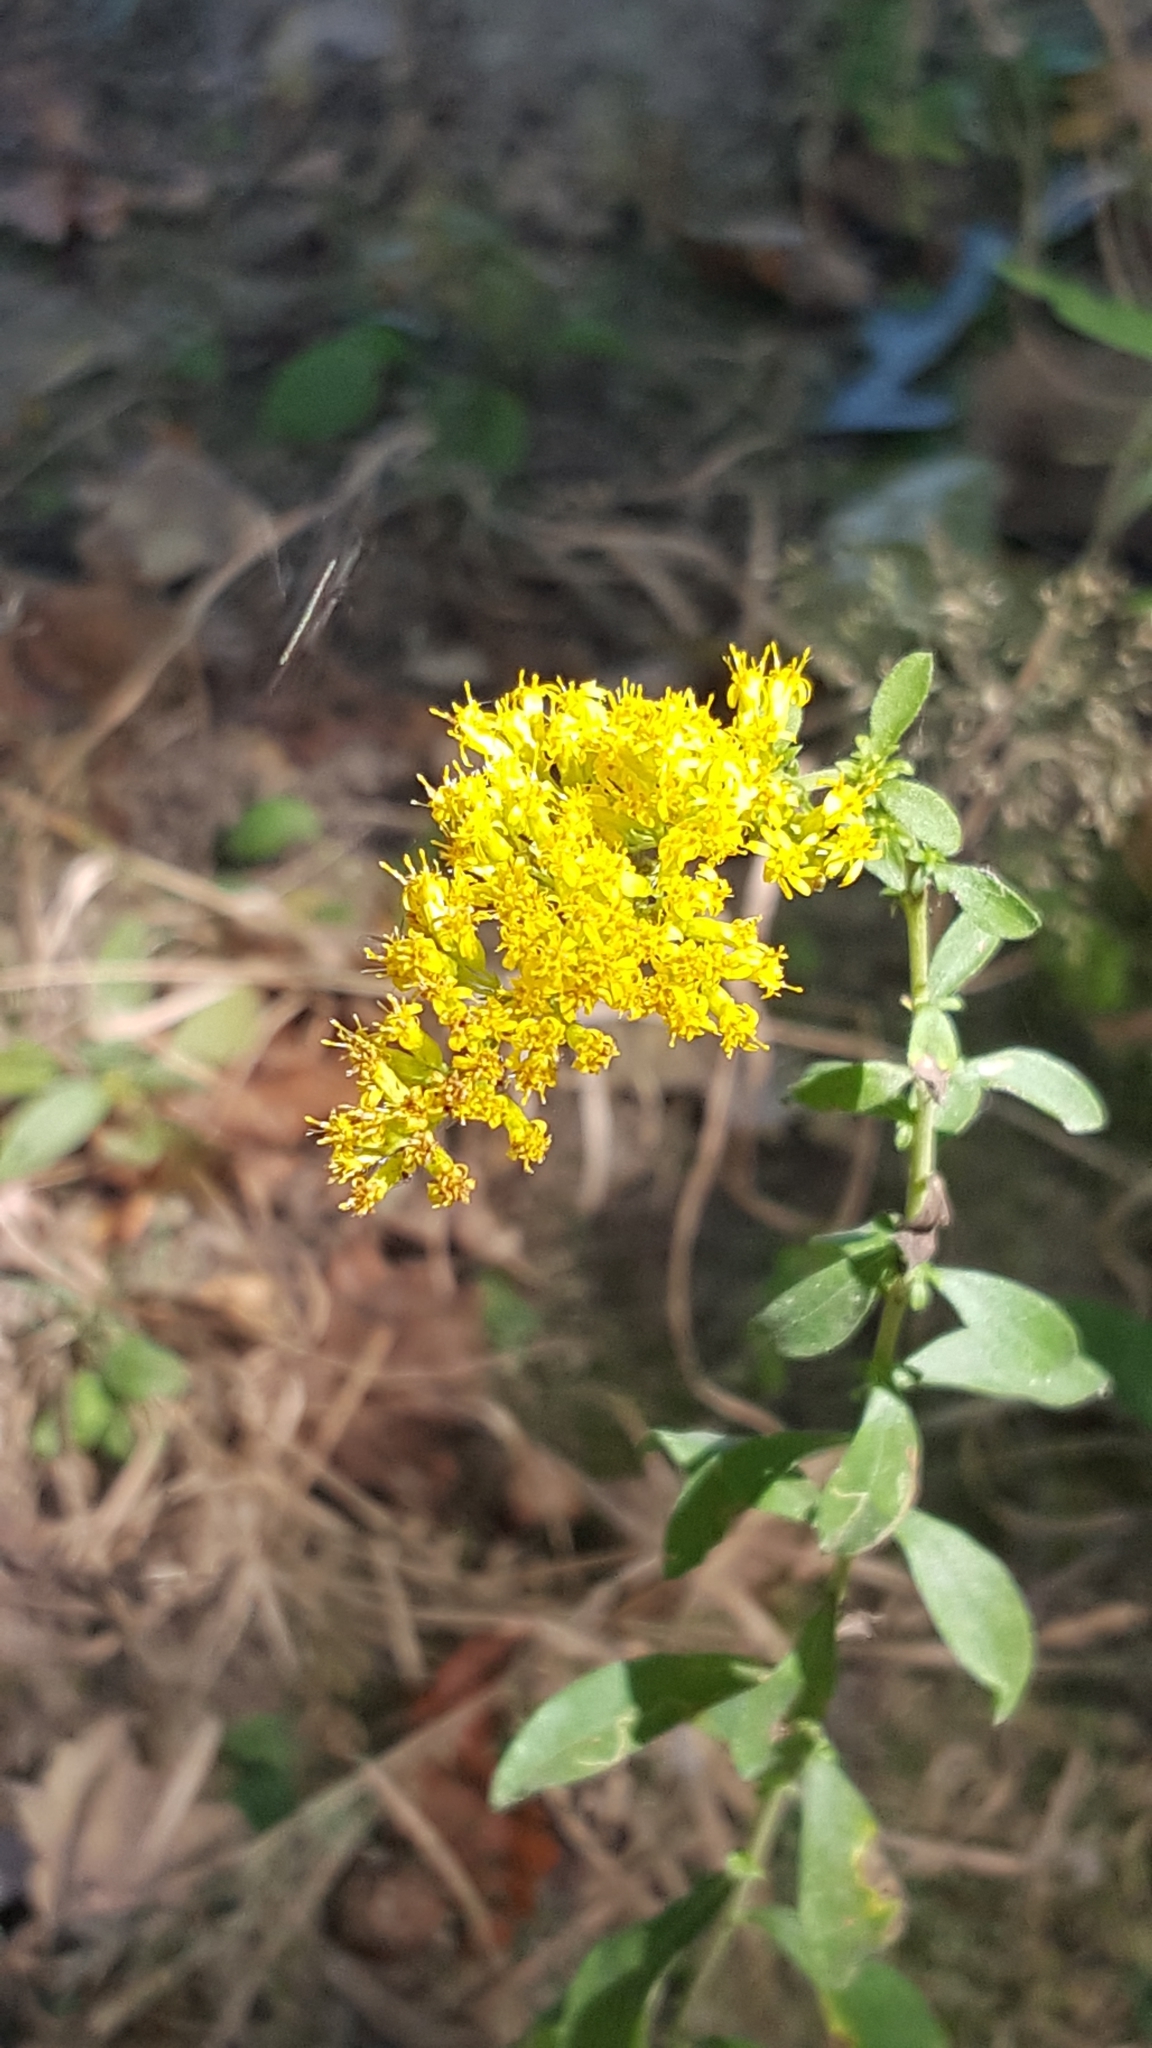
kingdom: Plantae
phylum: Tracheophyta
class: Magnoliopsida
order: Asterales
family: Asteraceae
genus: Solidago
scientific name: Solidago nemoralis
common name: Grey goldenrod
